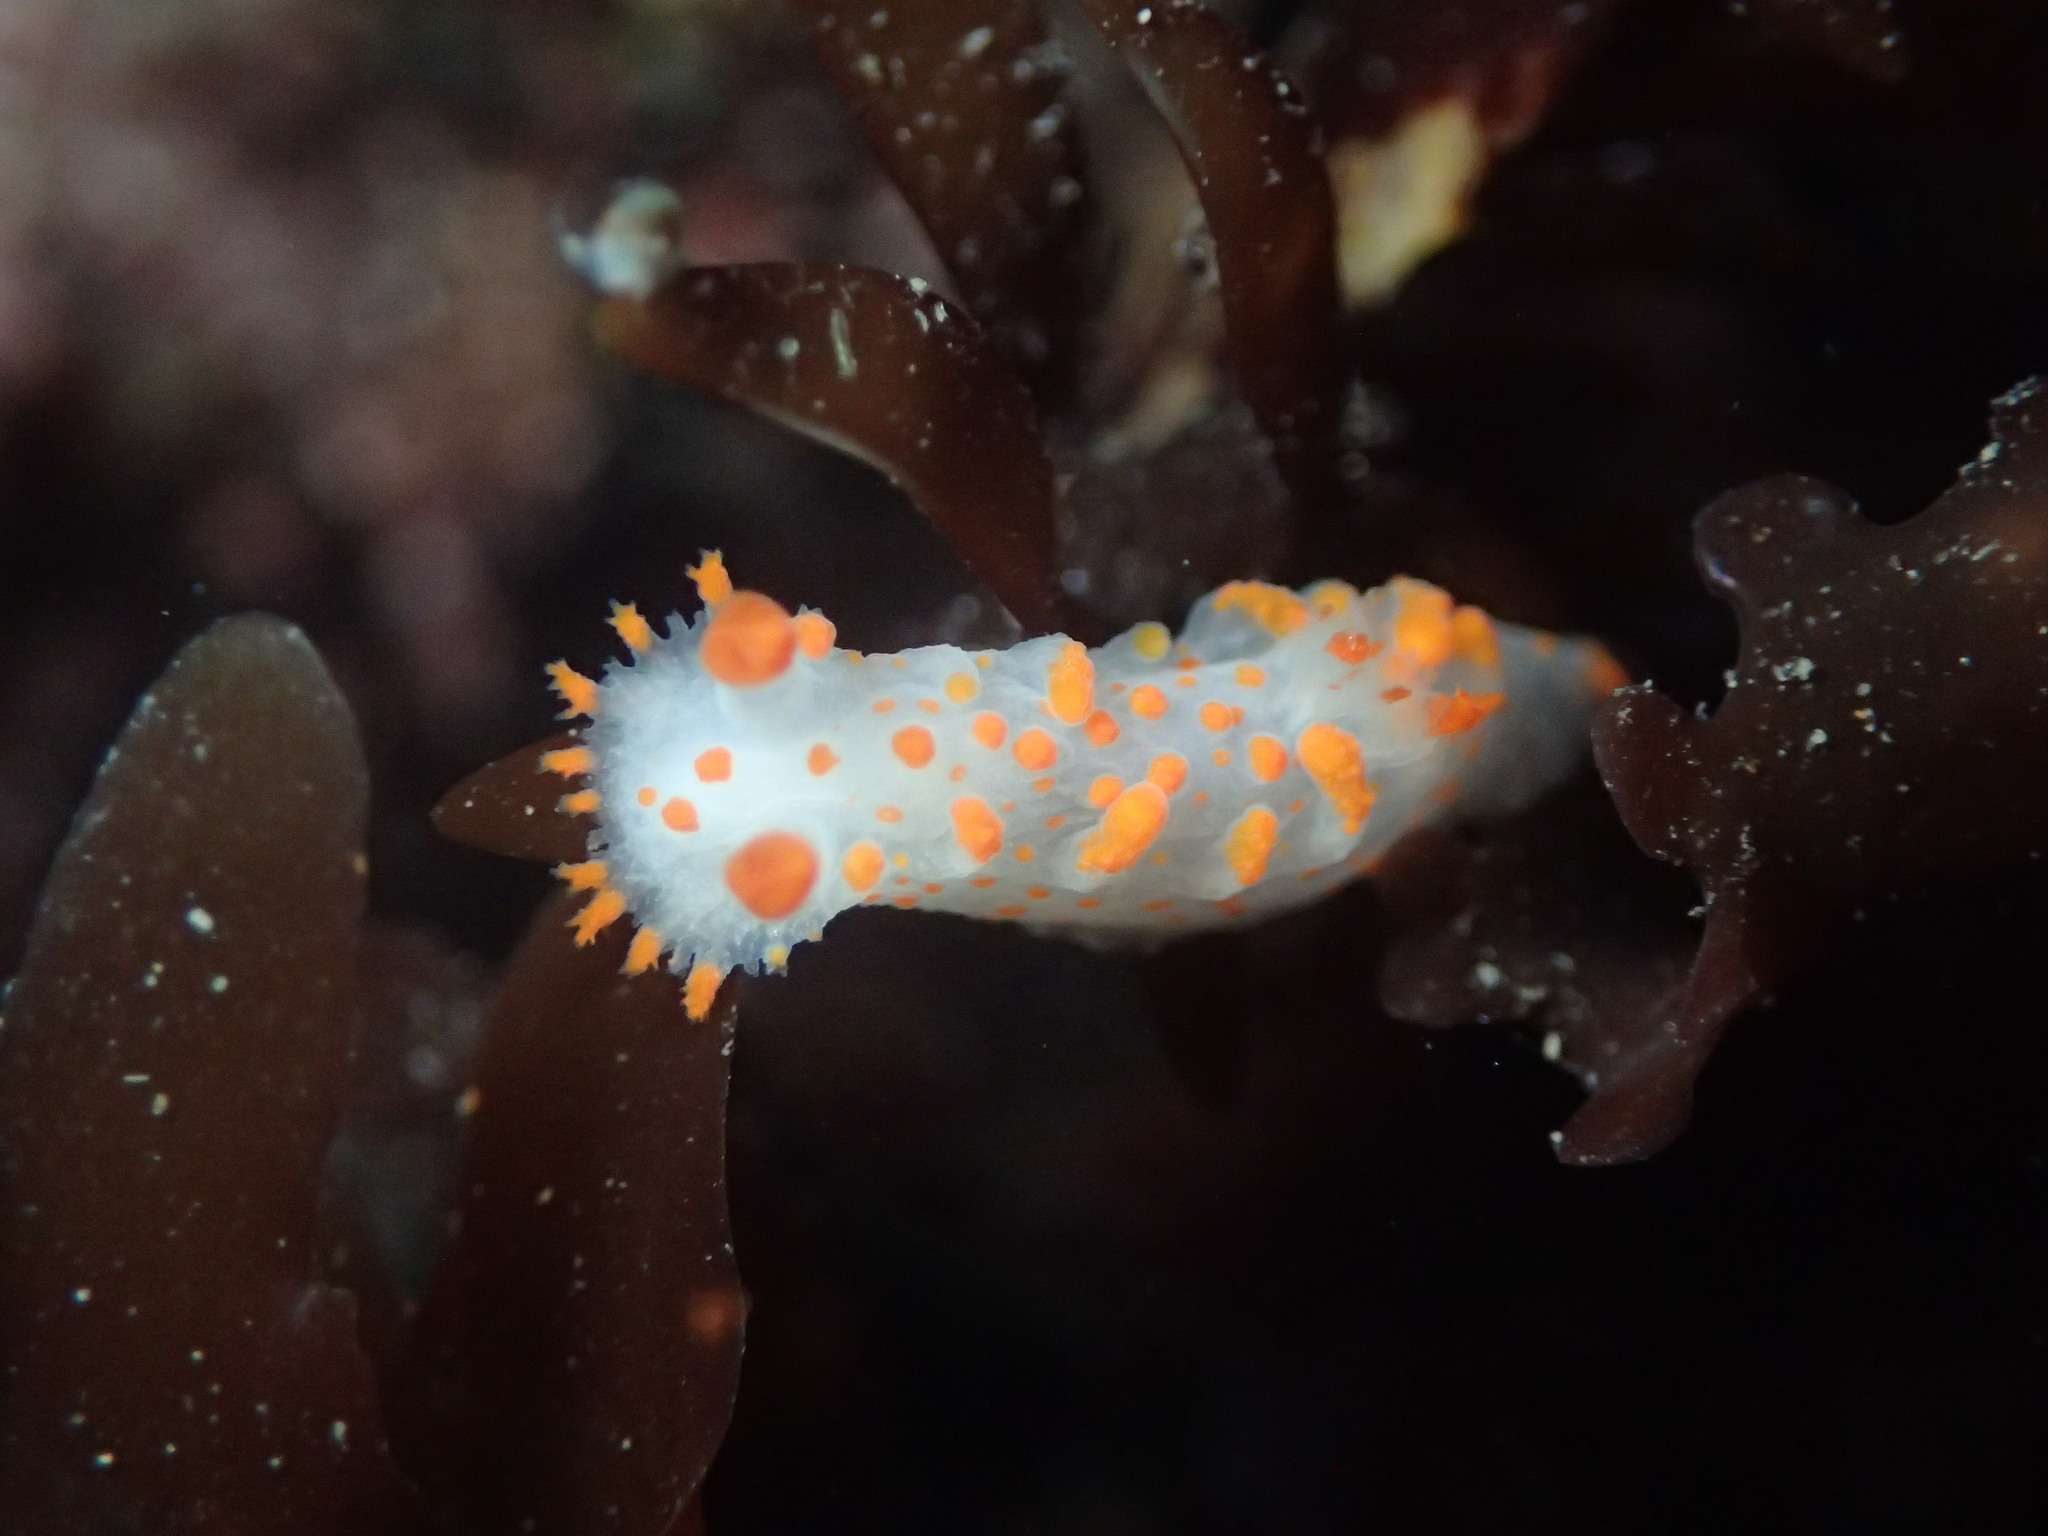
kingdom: Animalia
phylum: Mollusca
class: Gastropoda
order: Nudibranchia
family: Polyceridae
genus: Triopha
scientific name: Triopha catalinae
